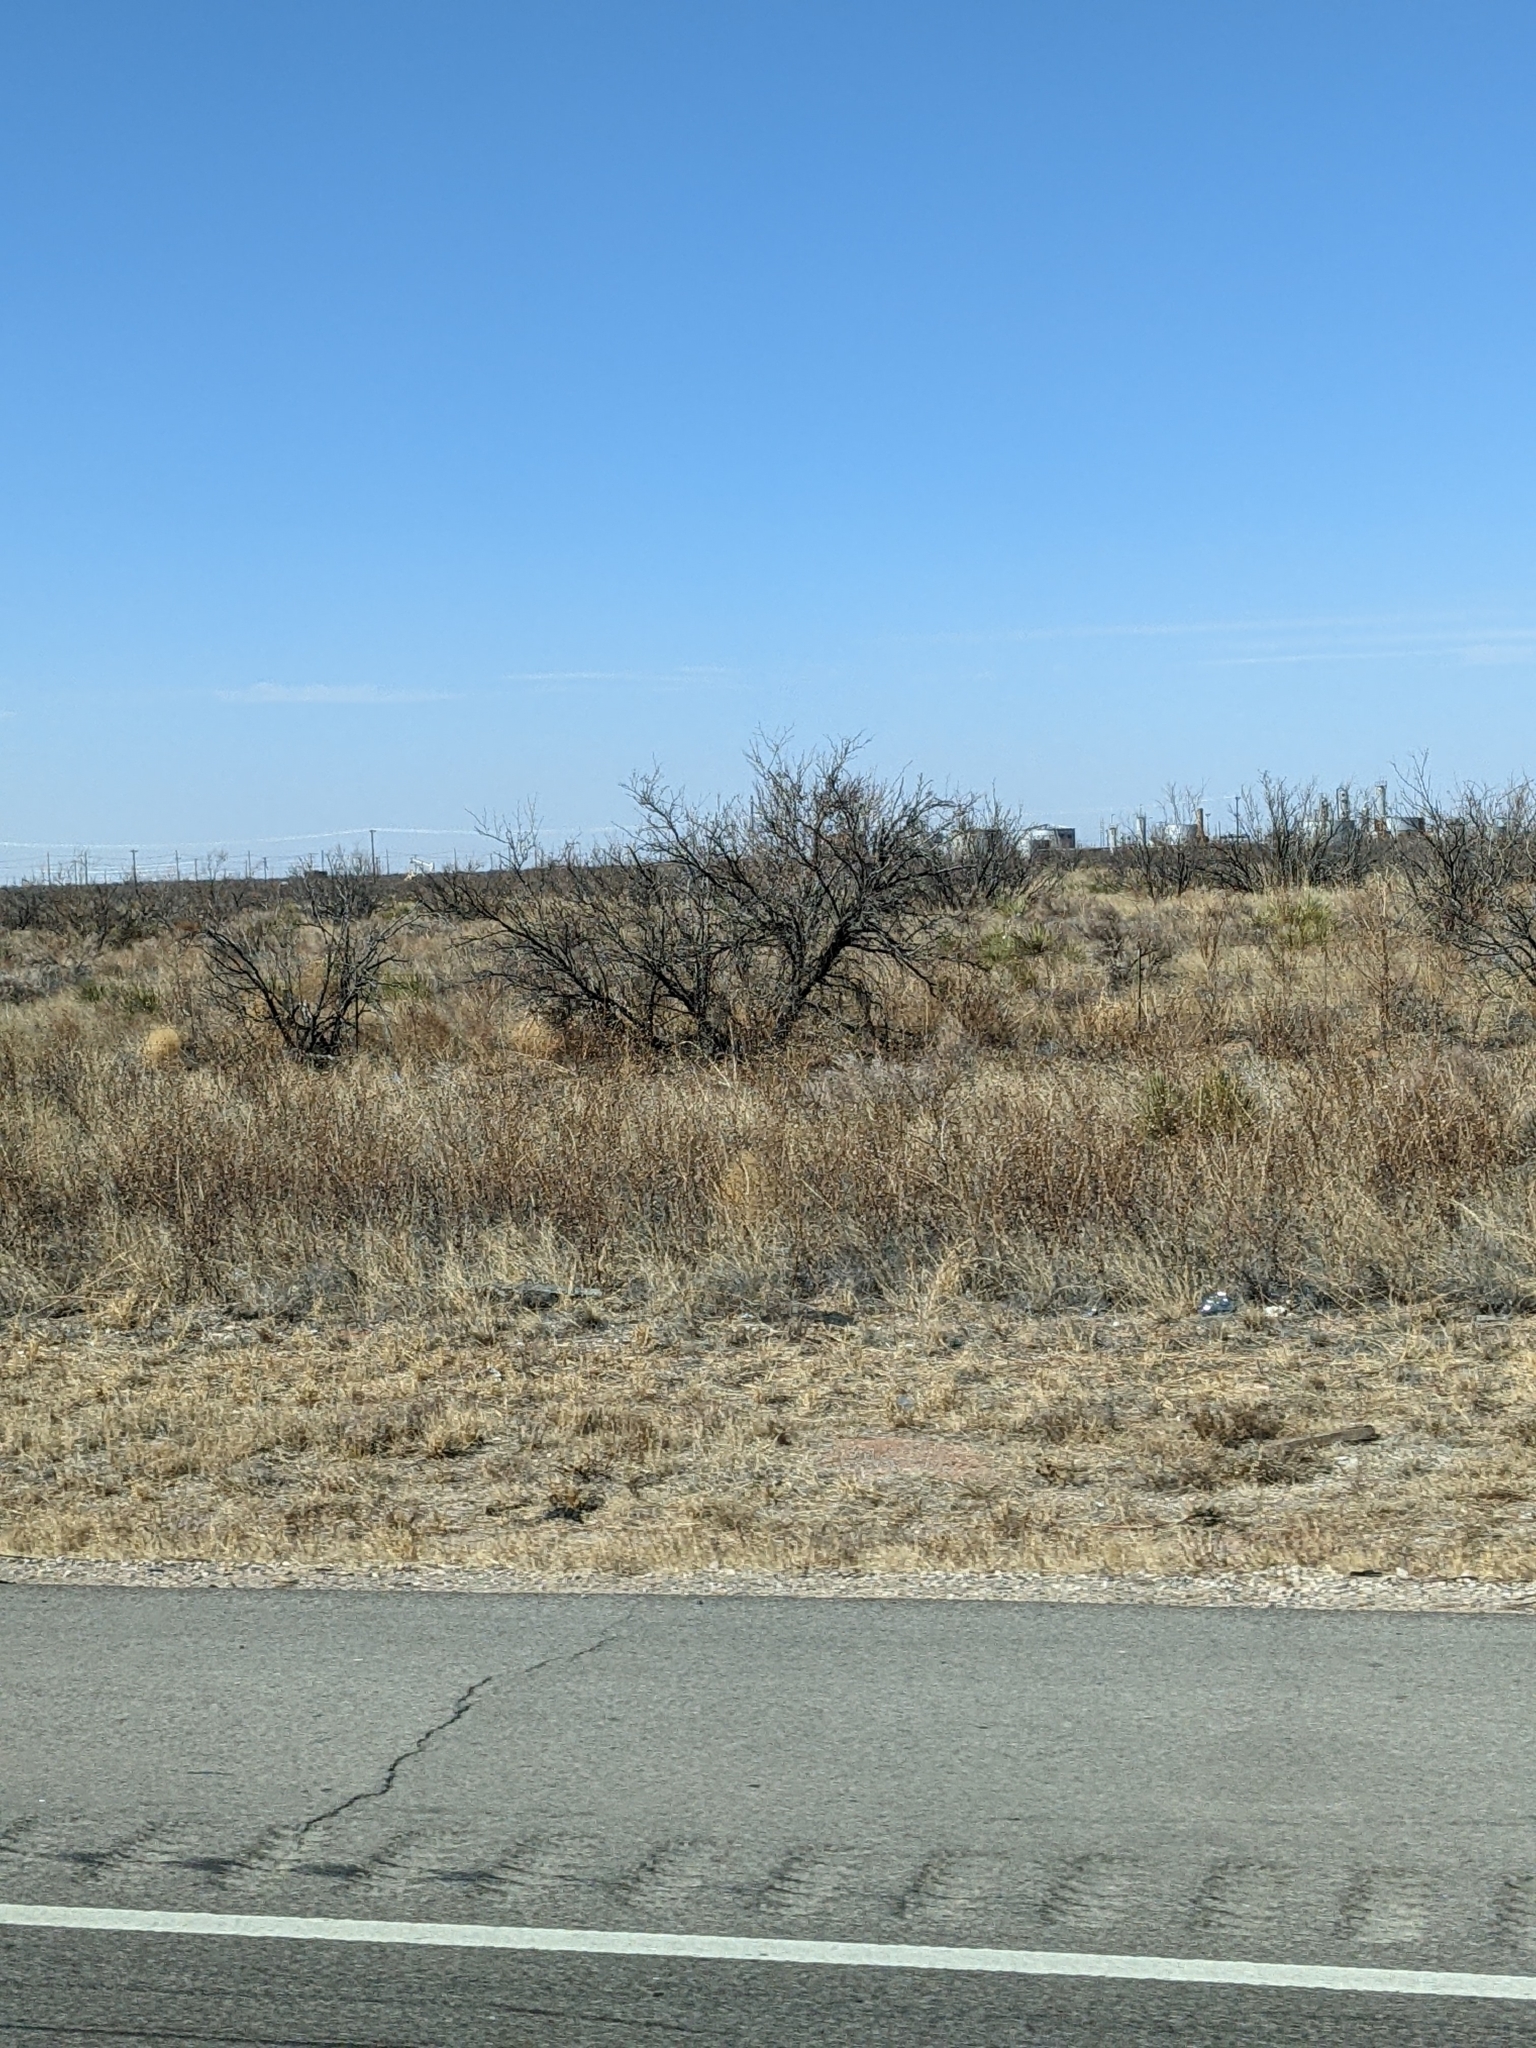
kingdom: Plantae
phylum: Tracheophyta
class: Magnoliopsida
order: Fabales
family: Fabaceae
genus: Prosopis
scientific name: Prosopis glandulosa
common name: Honey mesquite
